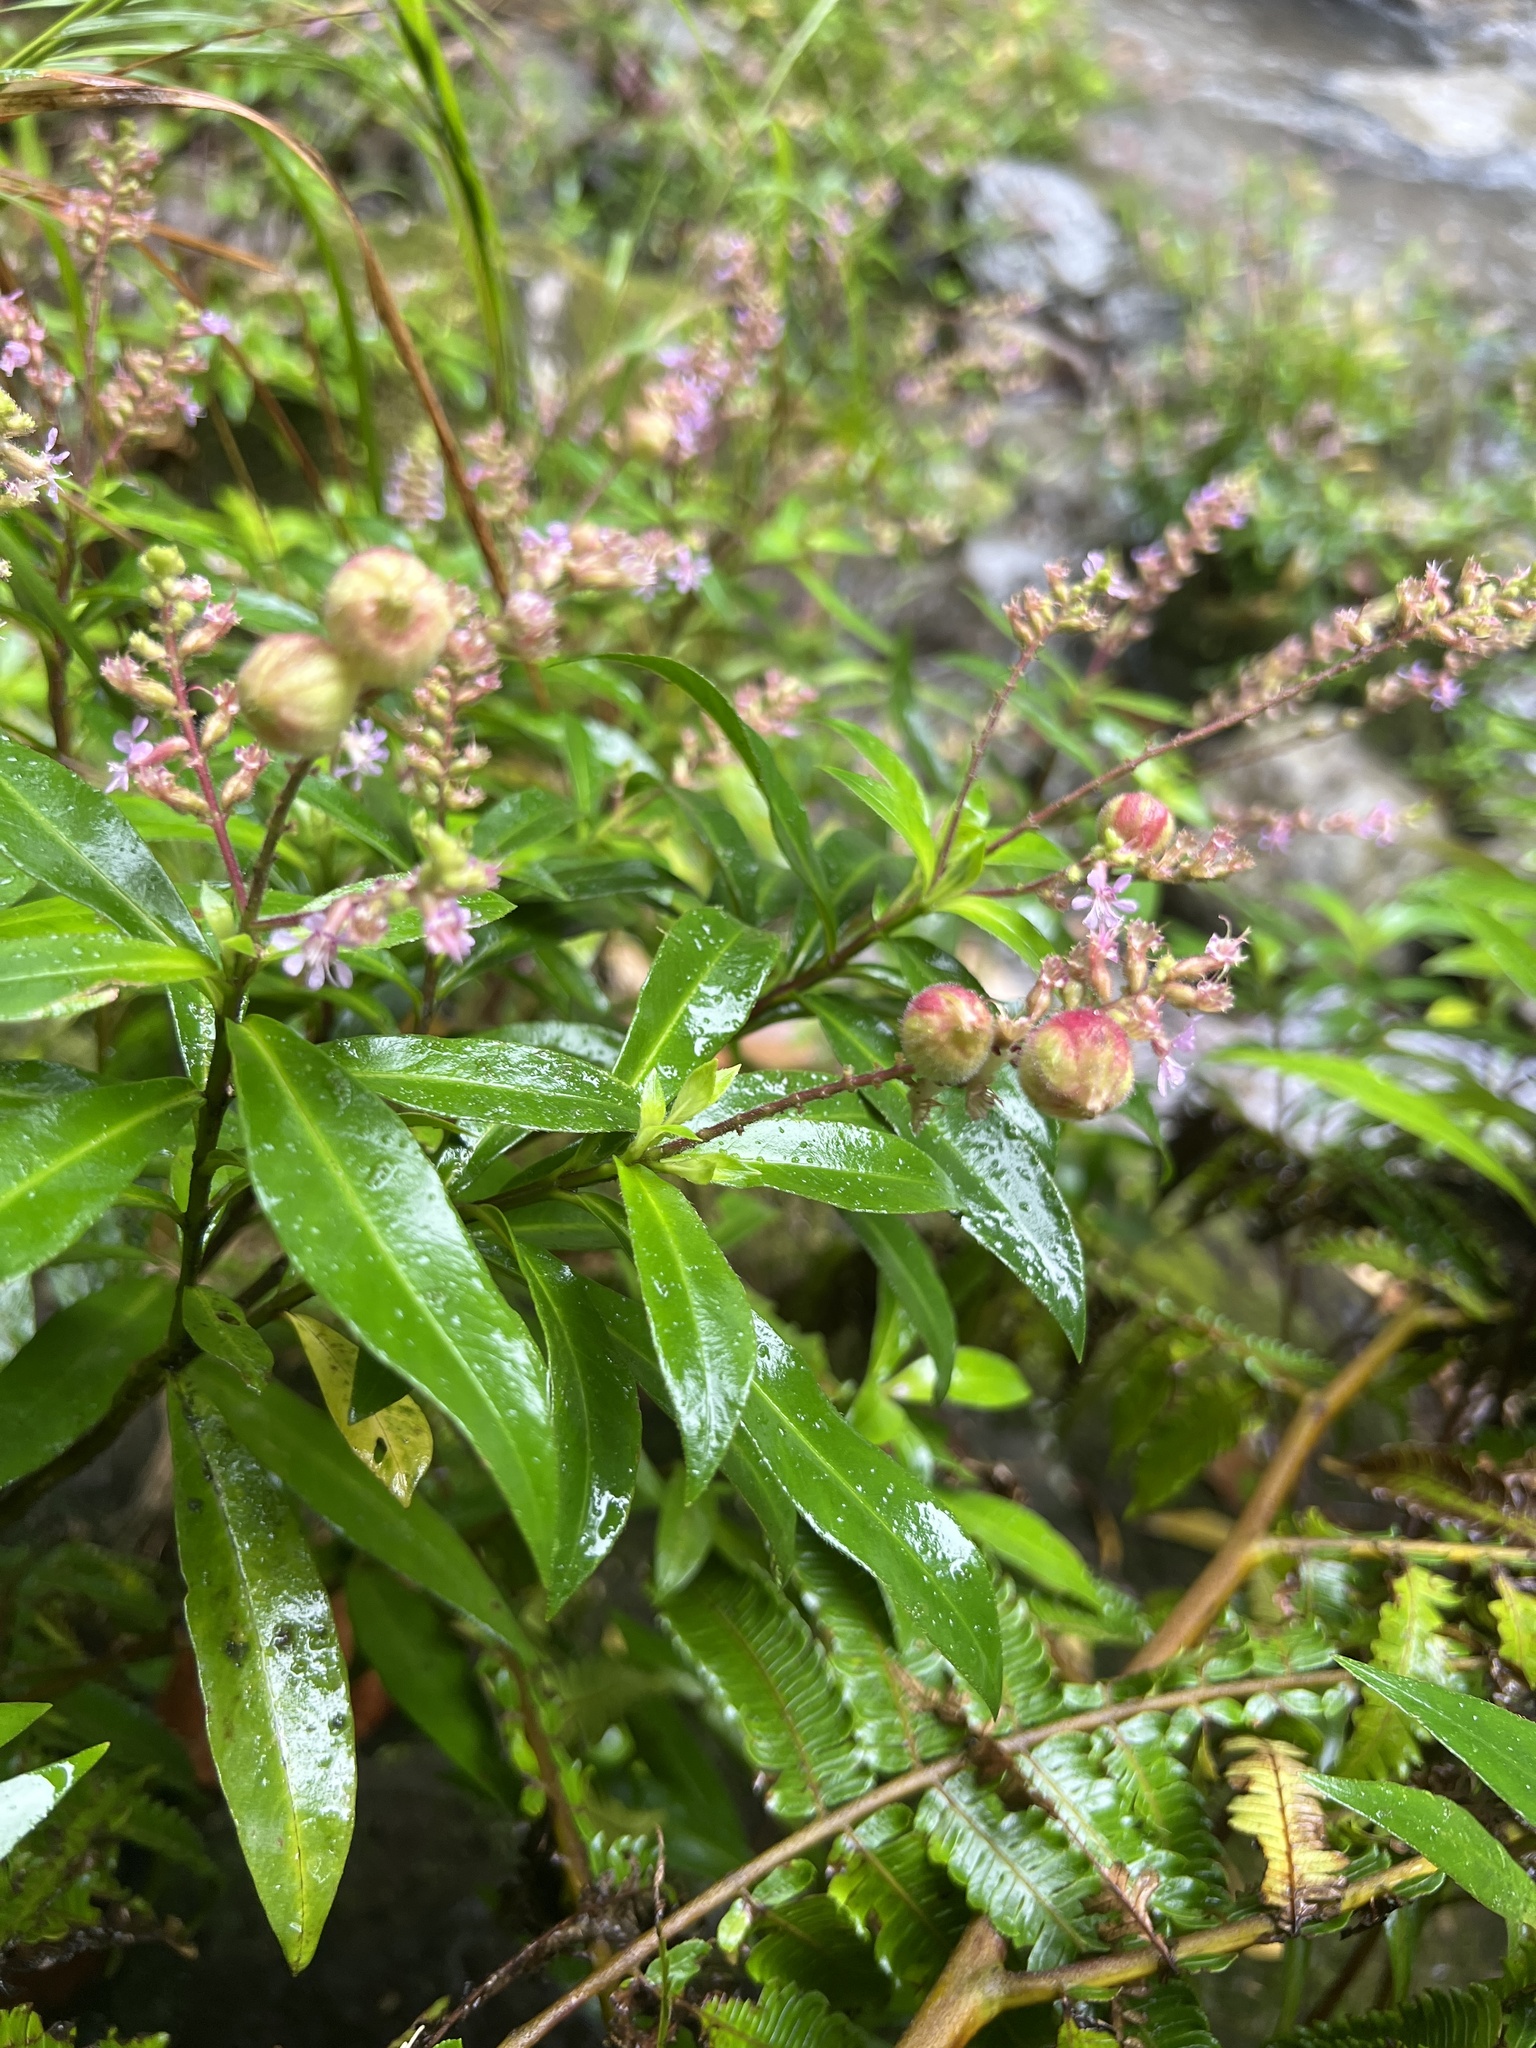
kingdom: Plantae
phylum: Tracheophyta
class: Magnoliopsida
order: Myrtales
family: Lythraceae
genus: Cuphea
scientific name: Cuphea epilobiifolia
